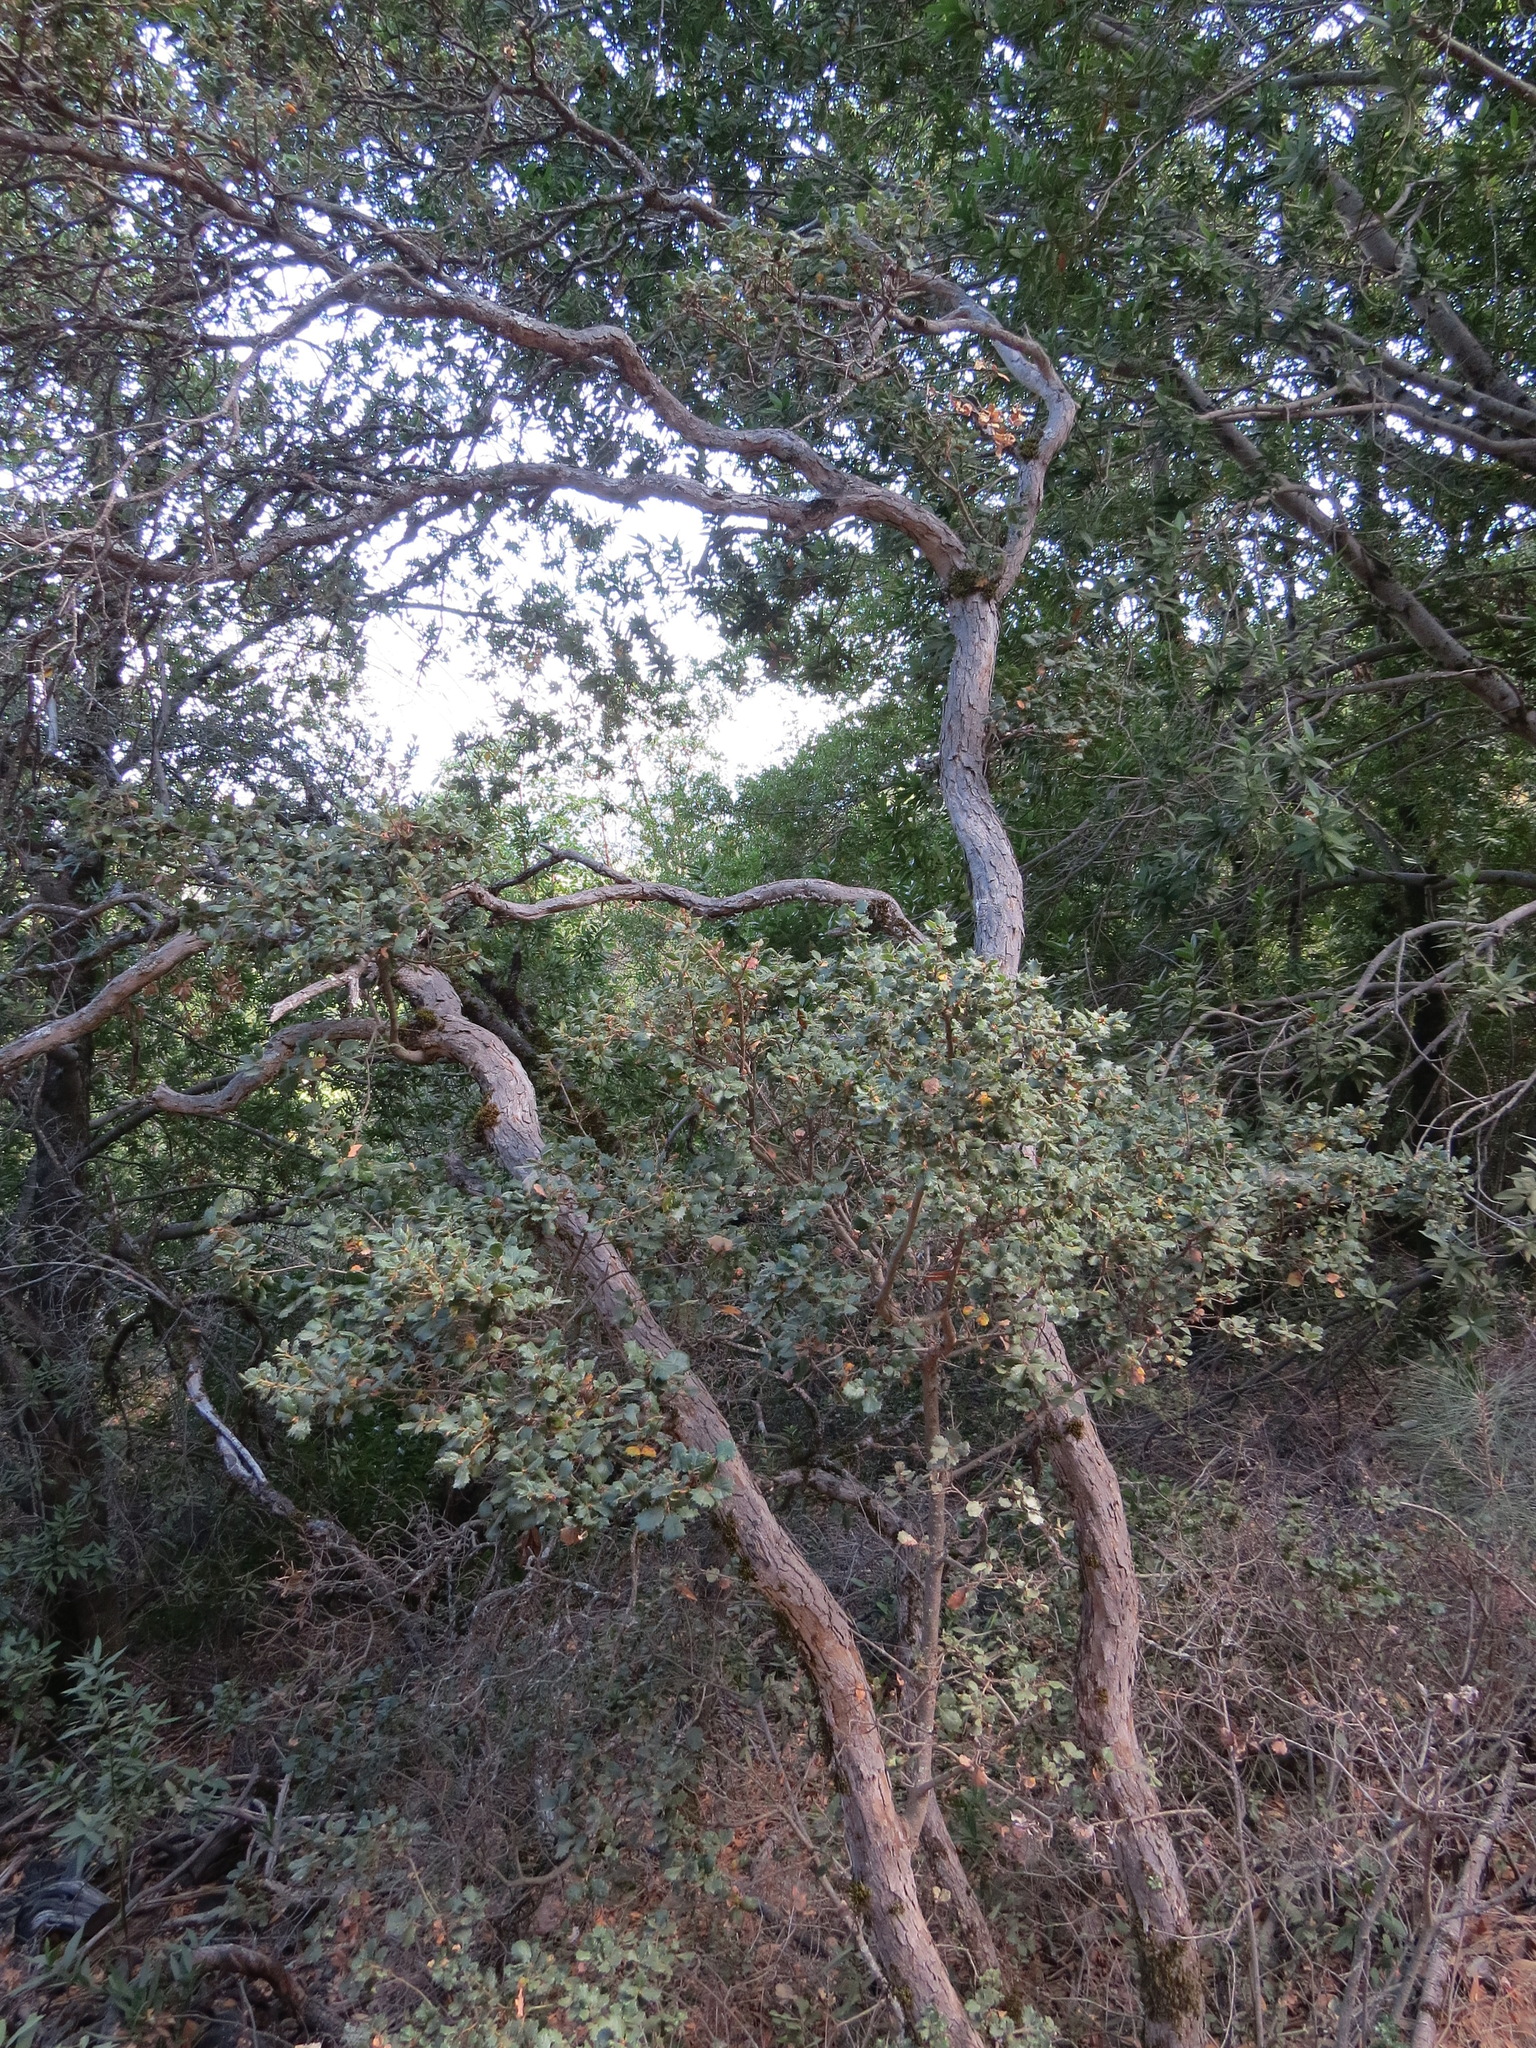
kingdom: Plantae
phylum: Tracheophyta
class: Magnoliopsida
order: Fagales
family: Fagaceae
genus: Quercus
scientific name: Quercus durata
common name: Leather oak
